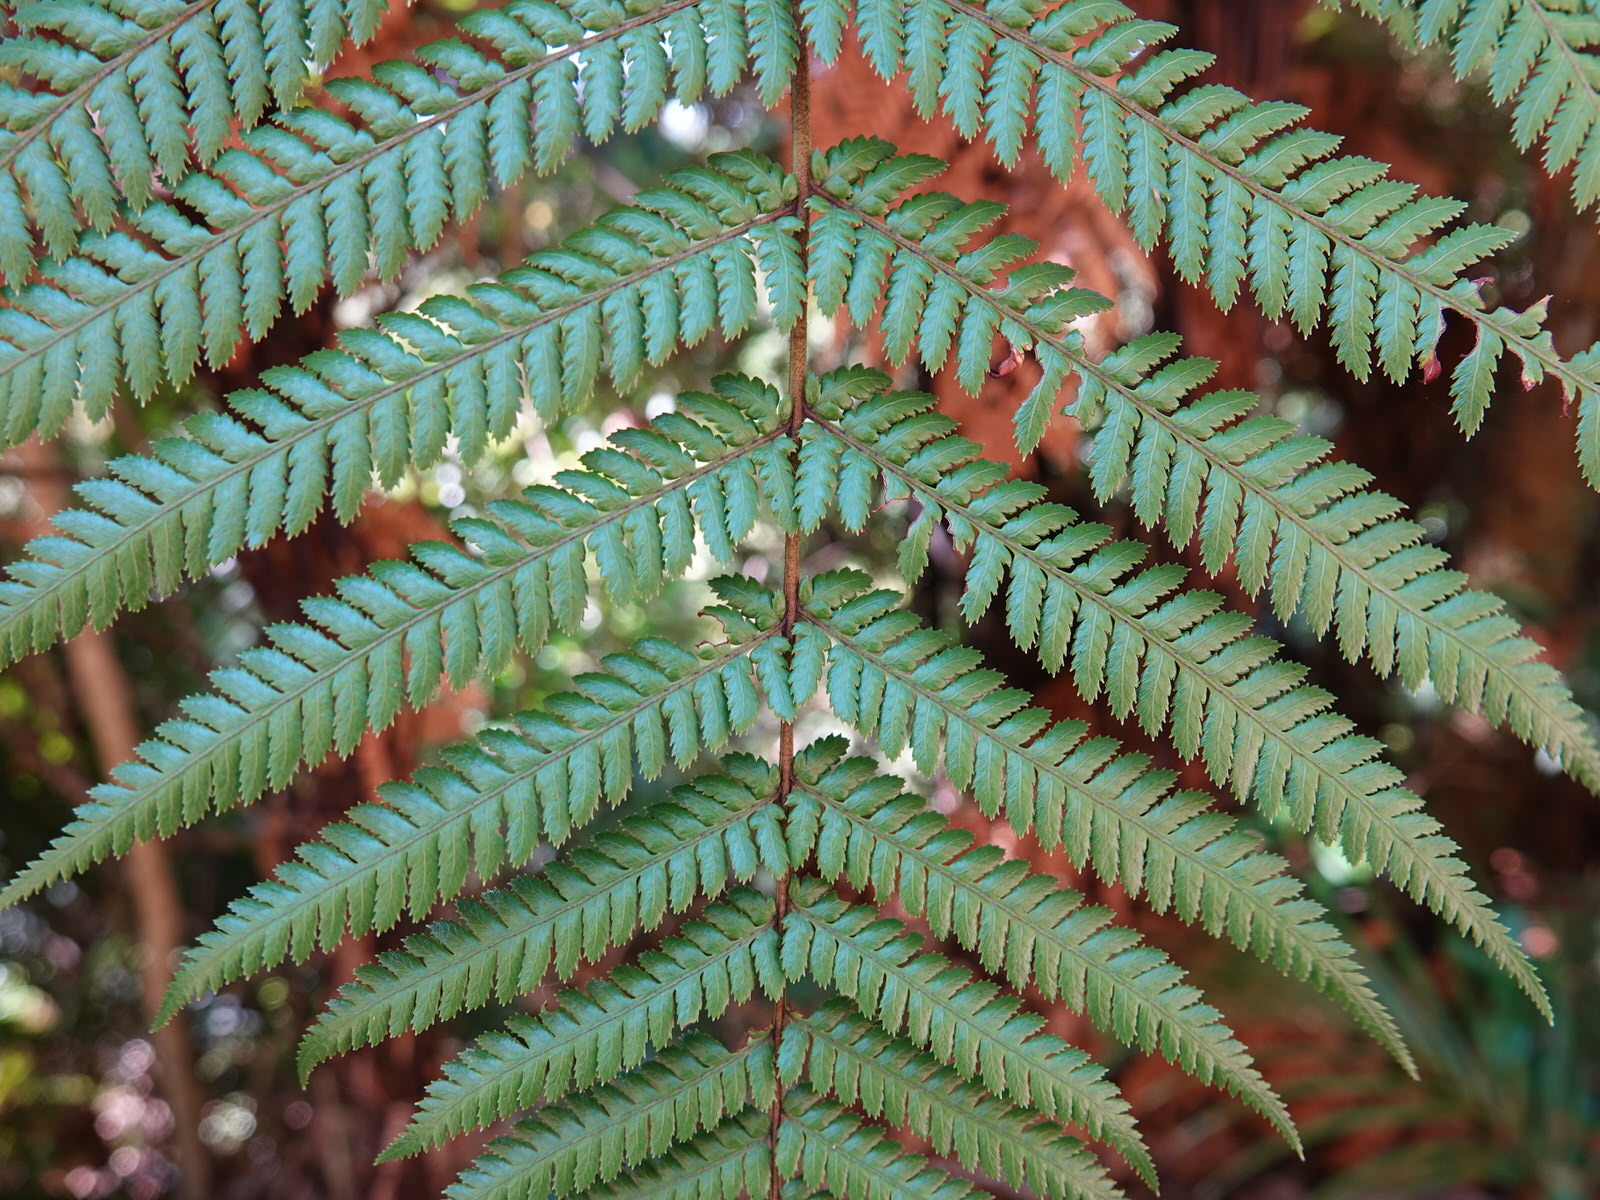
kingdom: Plantae
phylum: Tracheophyta
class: Polypodiopsida
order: Cyatheales
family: Dicksoniaceae
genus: Dicksonia
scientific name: Dicksonia squarrosa
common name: Hard treefern
